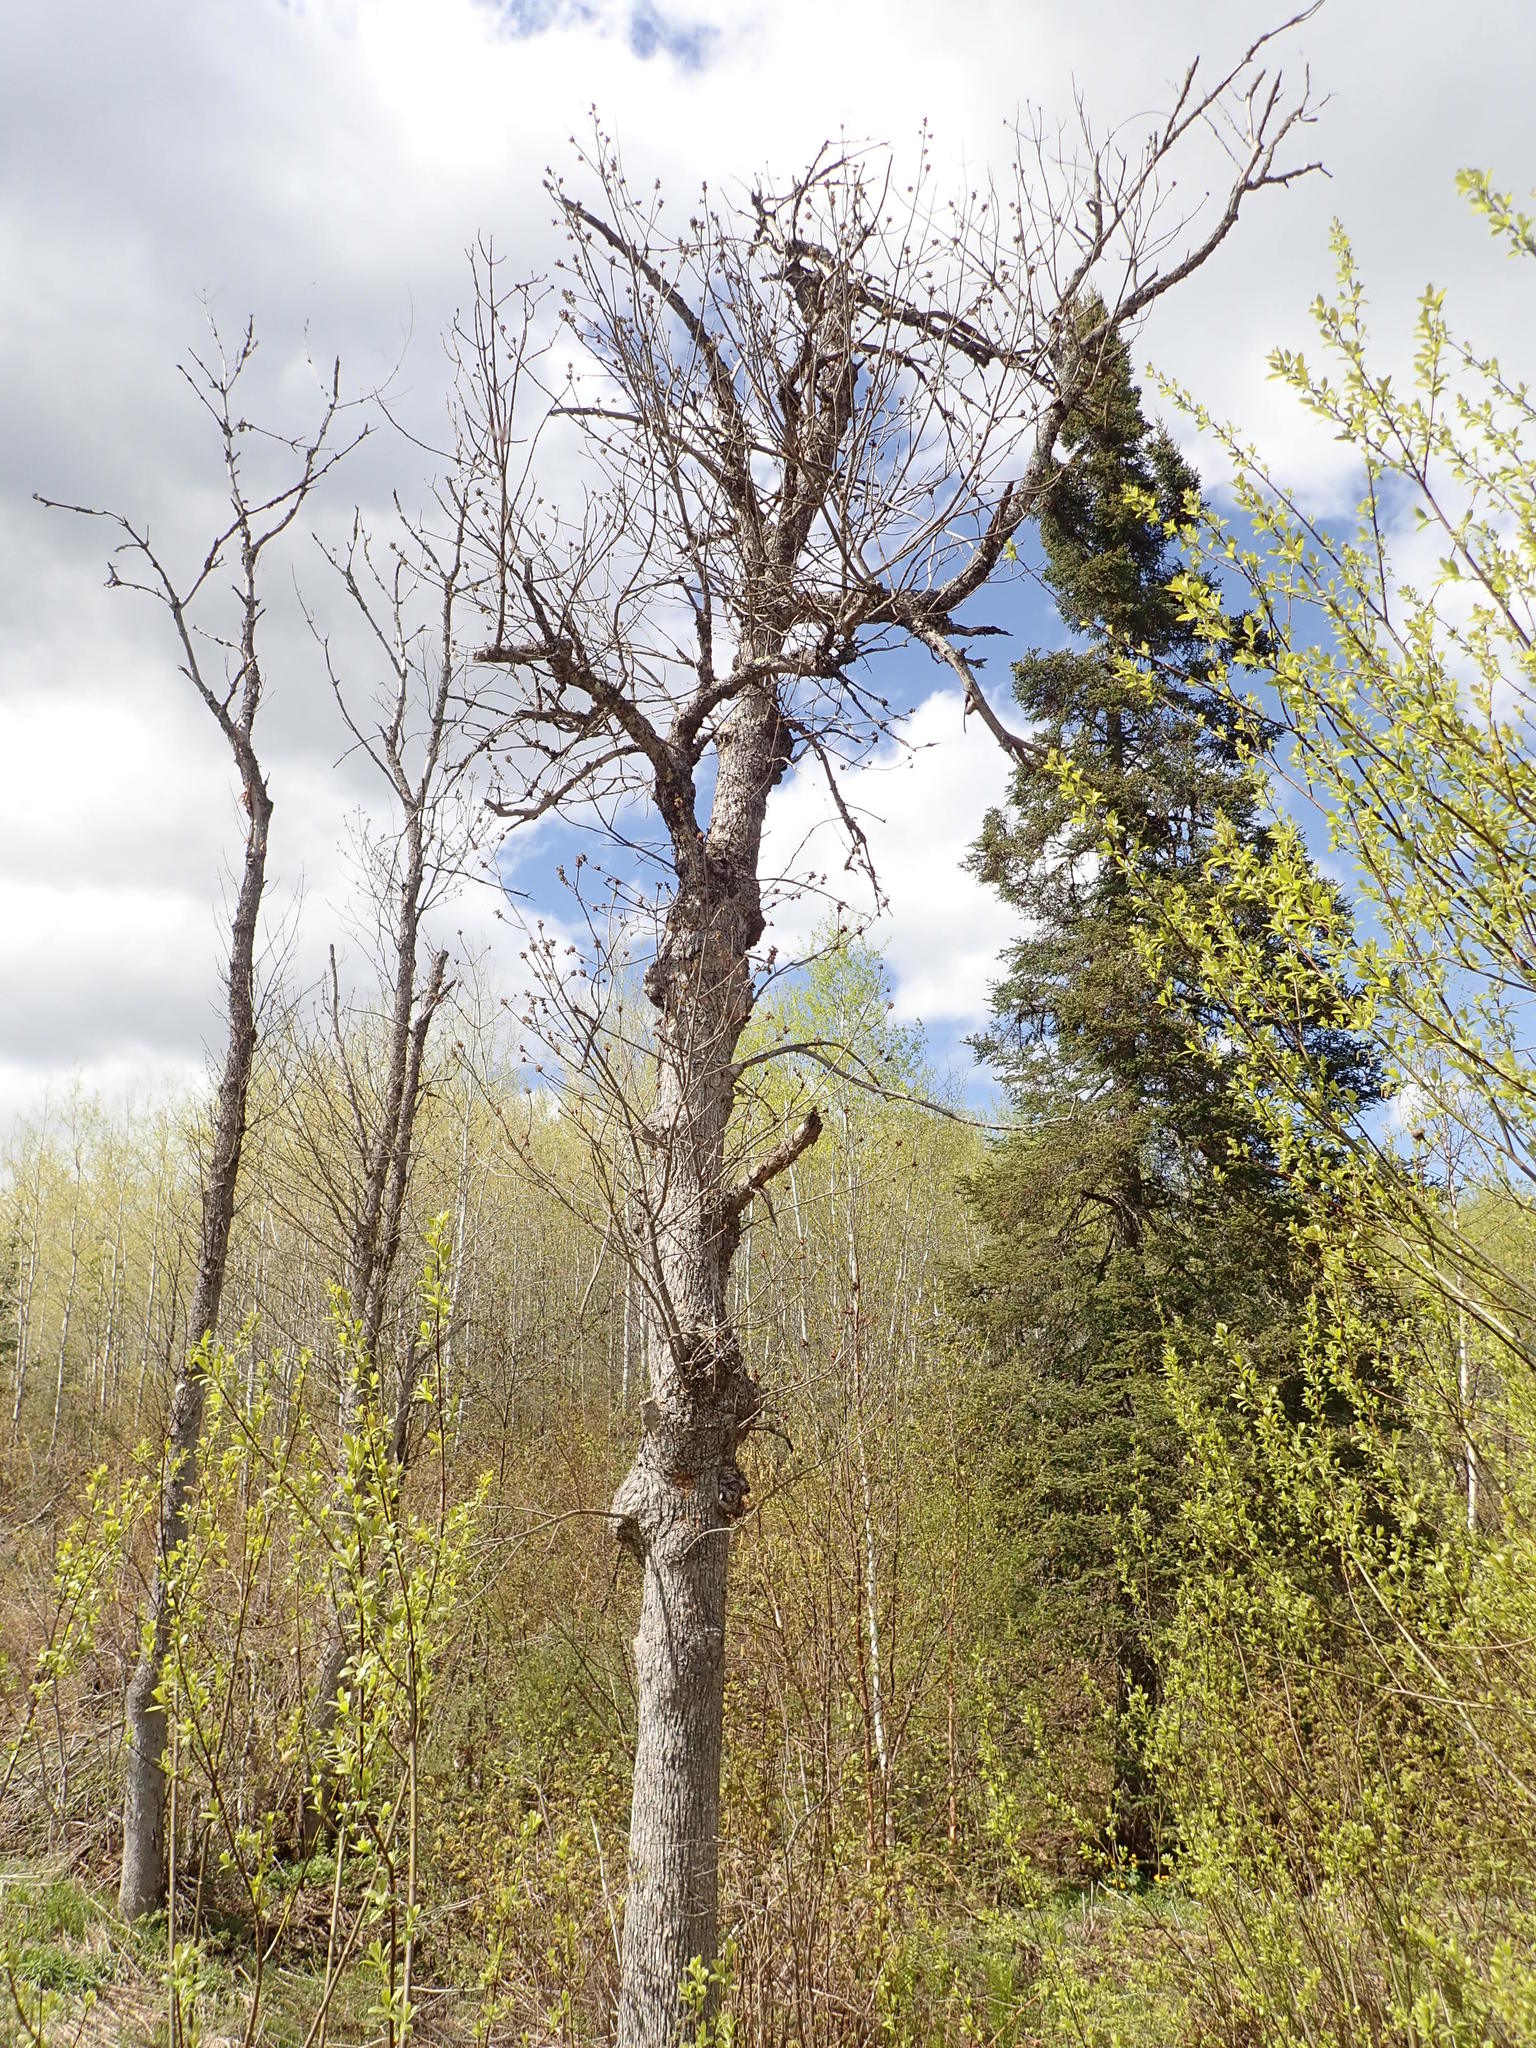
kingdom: Plantae
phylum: Tracheophyta
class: Magnoliopsida
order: Lamiales
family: Oleaceae
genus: Fraxinus
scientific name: Fraxinus nigra
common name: Black ash
